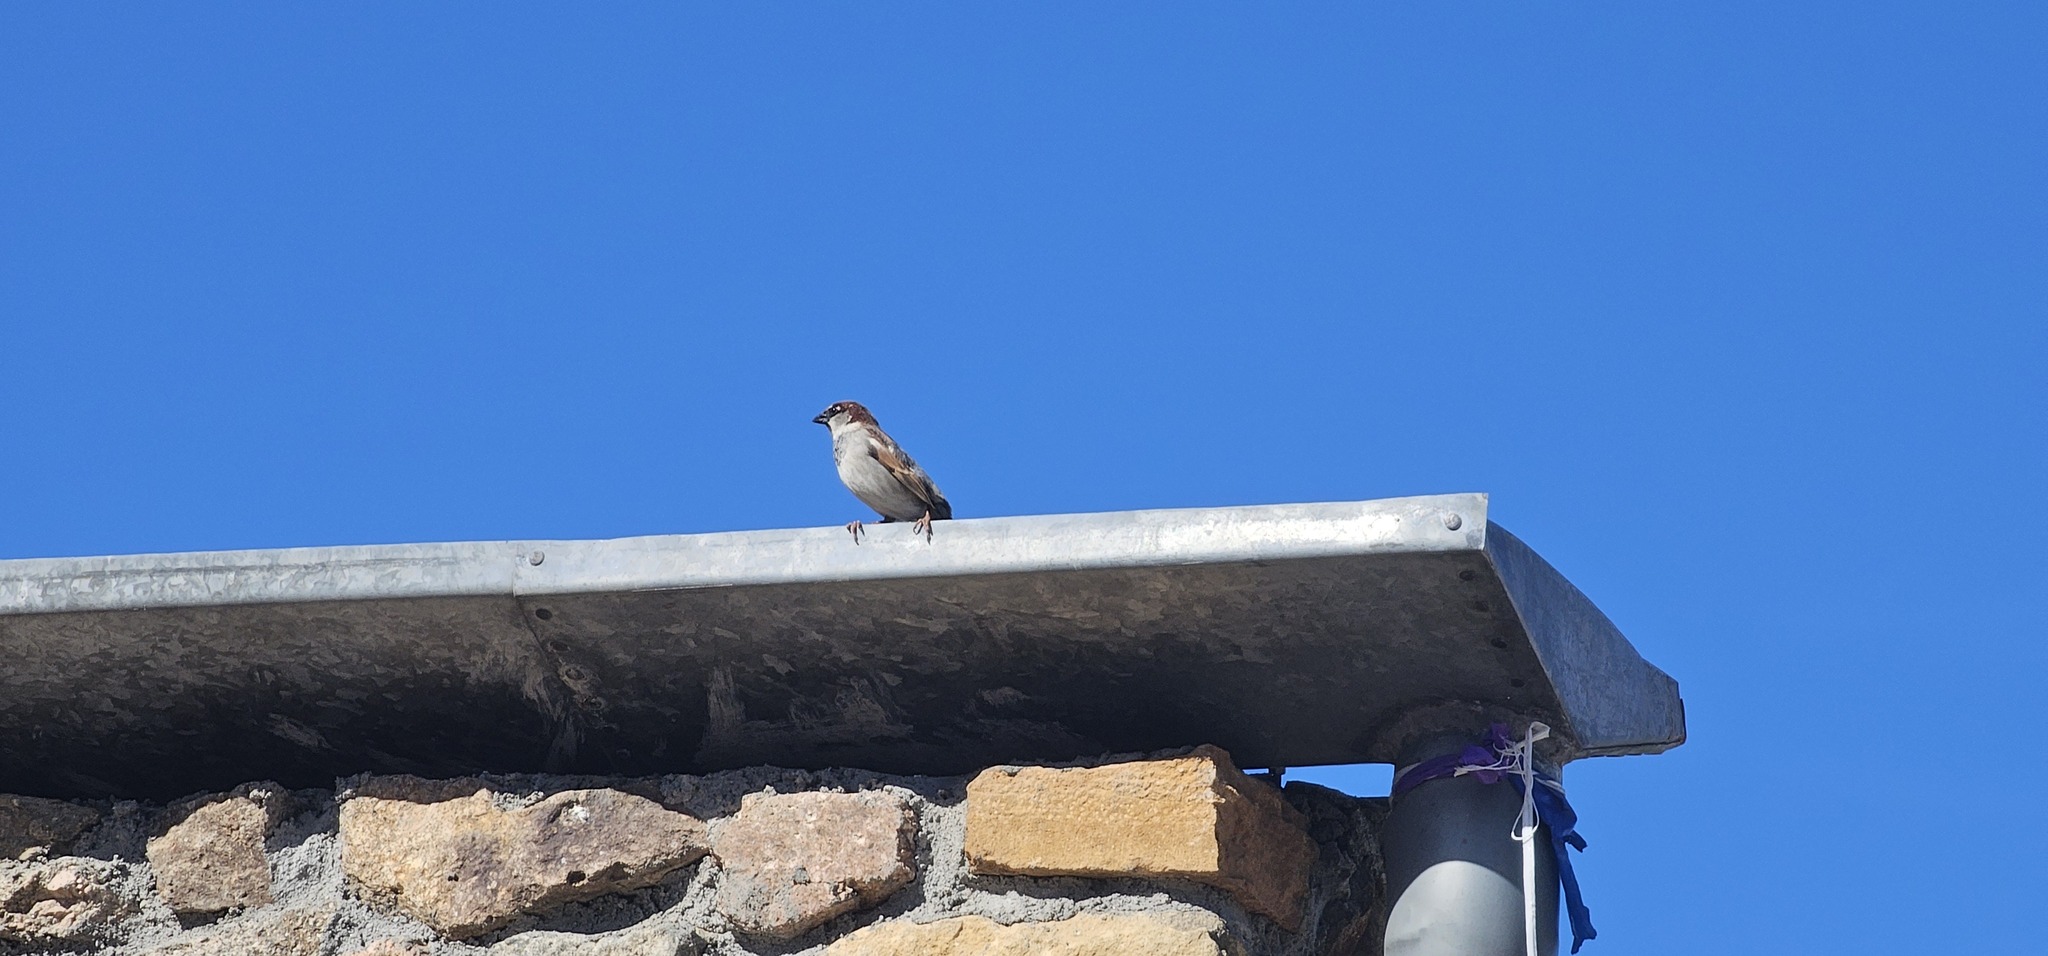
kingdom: Animalia
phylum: Chordata
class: Aves
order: Passeriformes
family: Passeridae
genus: Passer
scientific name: Passer domesticus
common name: House sparrow
